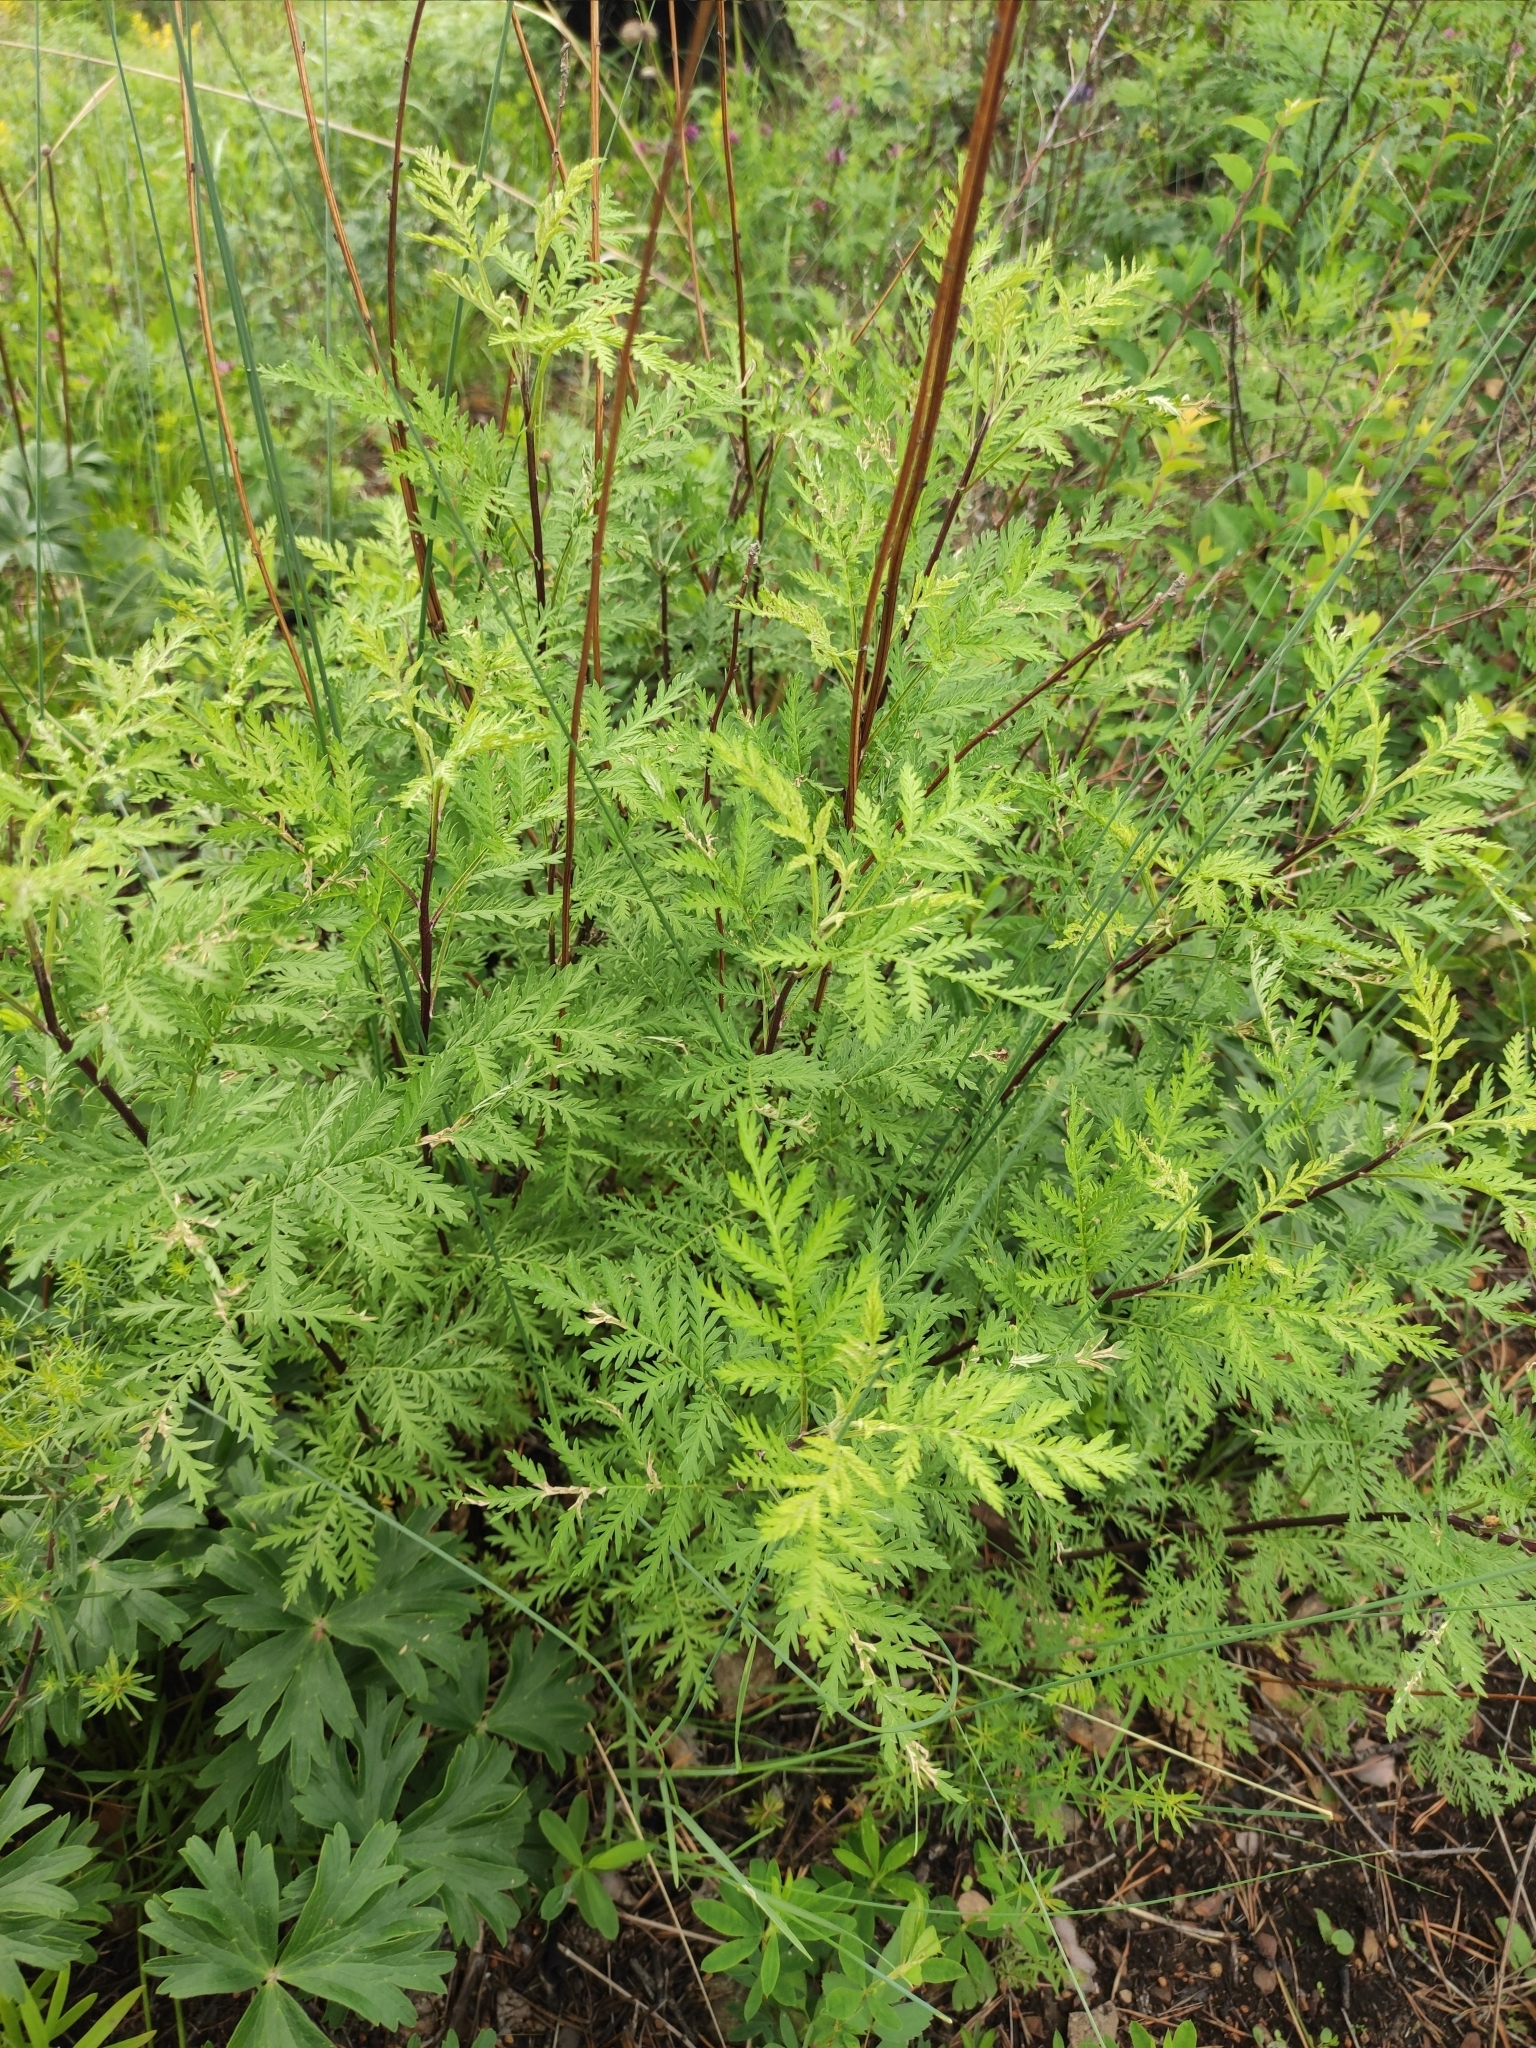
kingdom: Plantae
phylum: Tracheophyta
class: Magnoliopsida
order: Asterales
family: Asteraceae
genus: Artemisia
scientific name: Artemisia gmelinii
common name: Gmelin's wormwood
